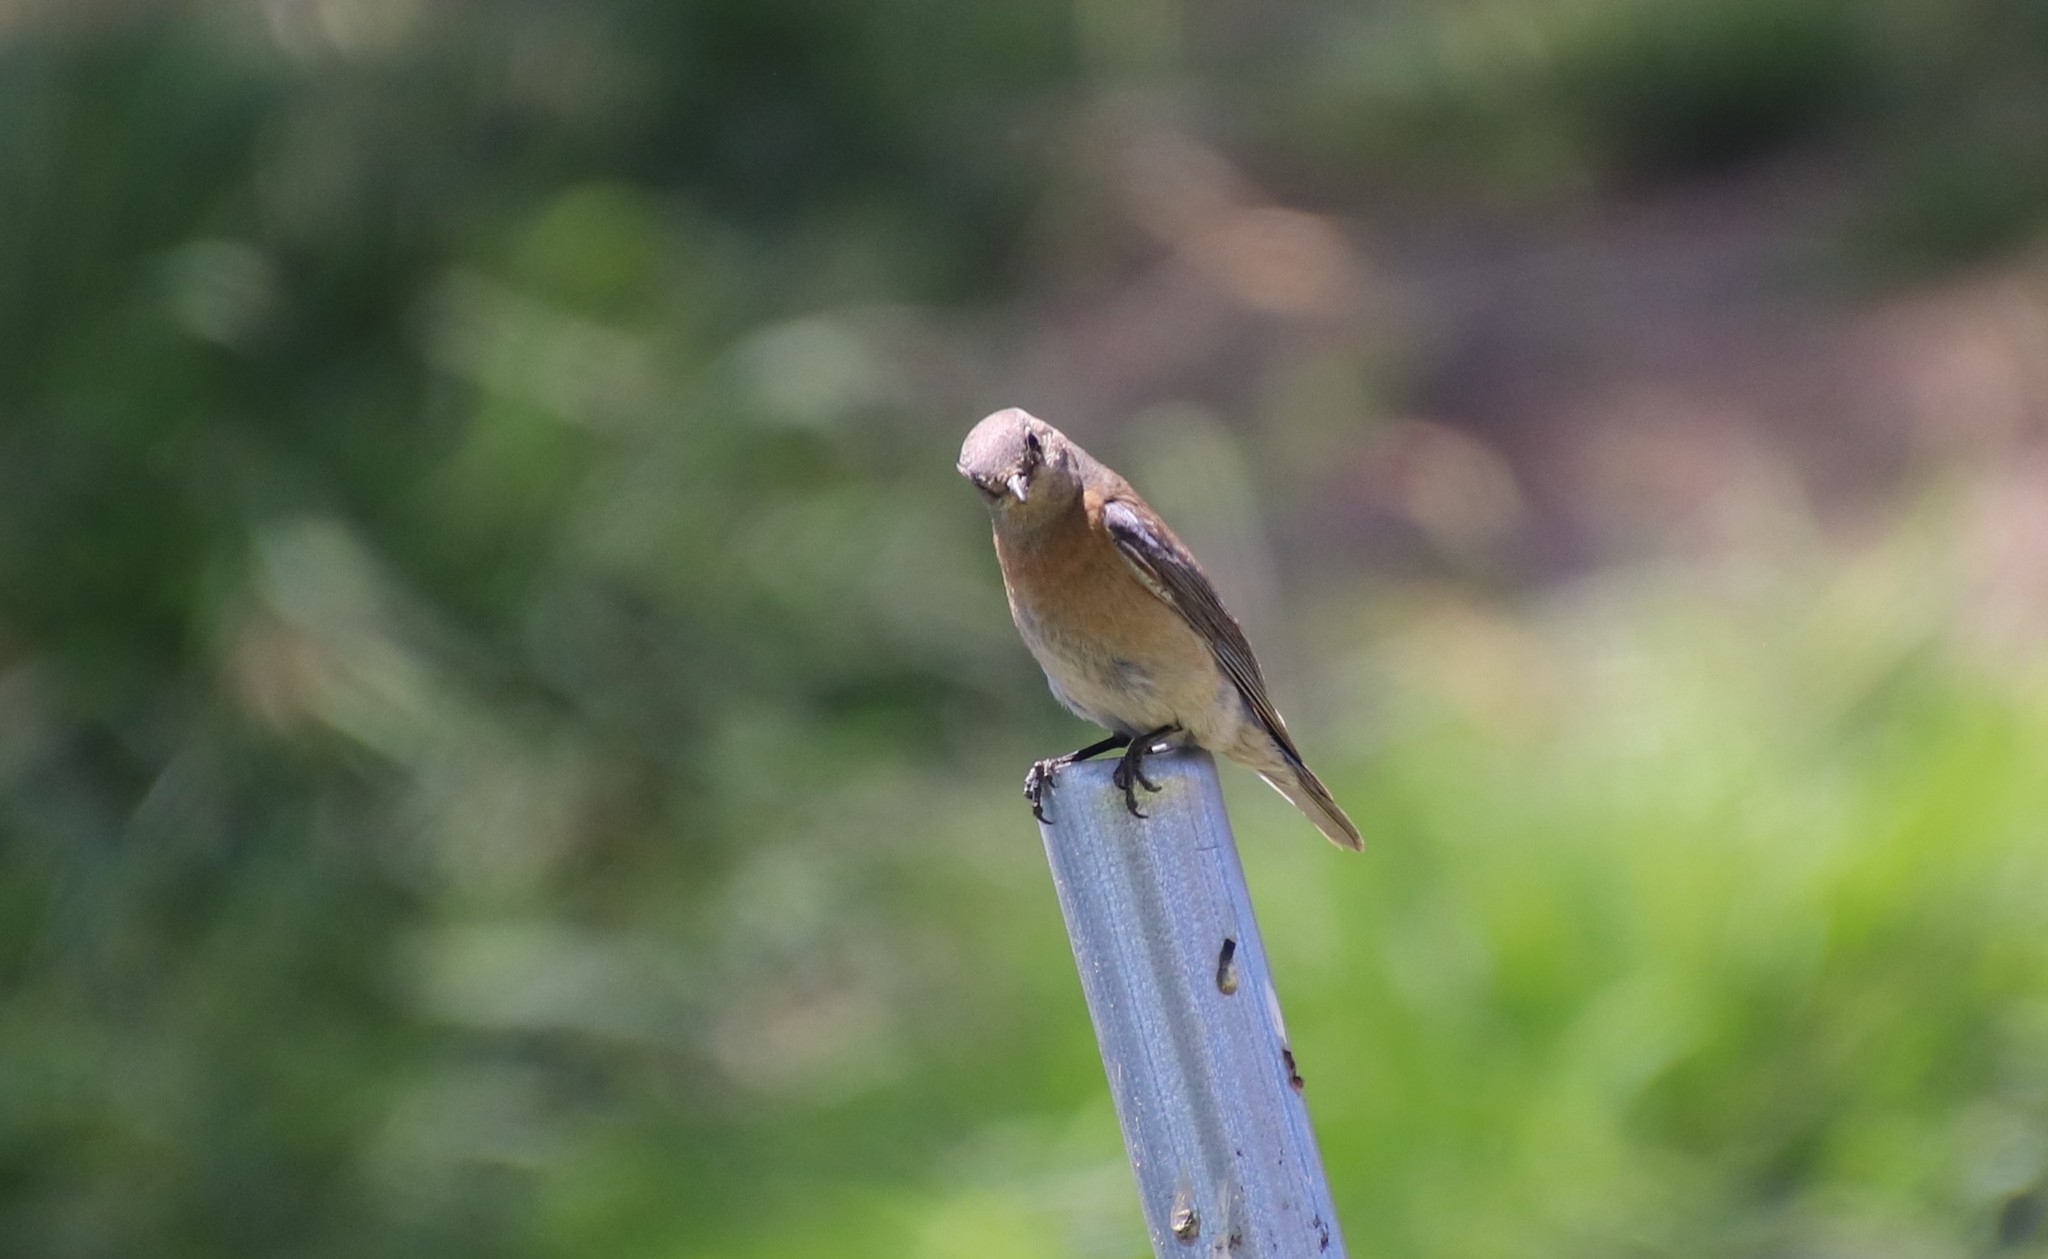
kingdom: Animalia
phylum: Chordata
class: Aves
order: Passeriformes
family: Turdidae
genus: Sialia
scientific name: Sialia mexicana
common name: Western bluebird
